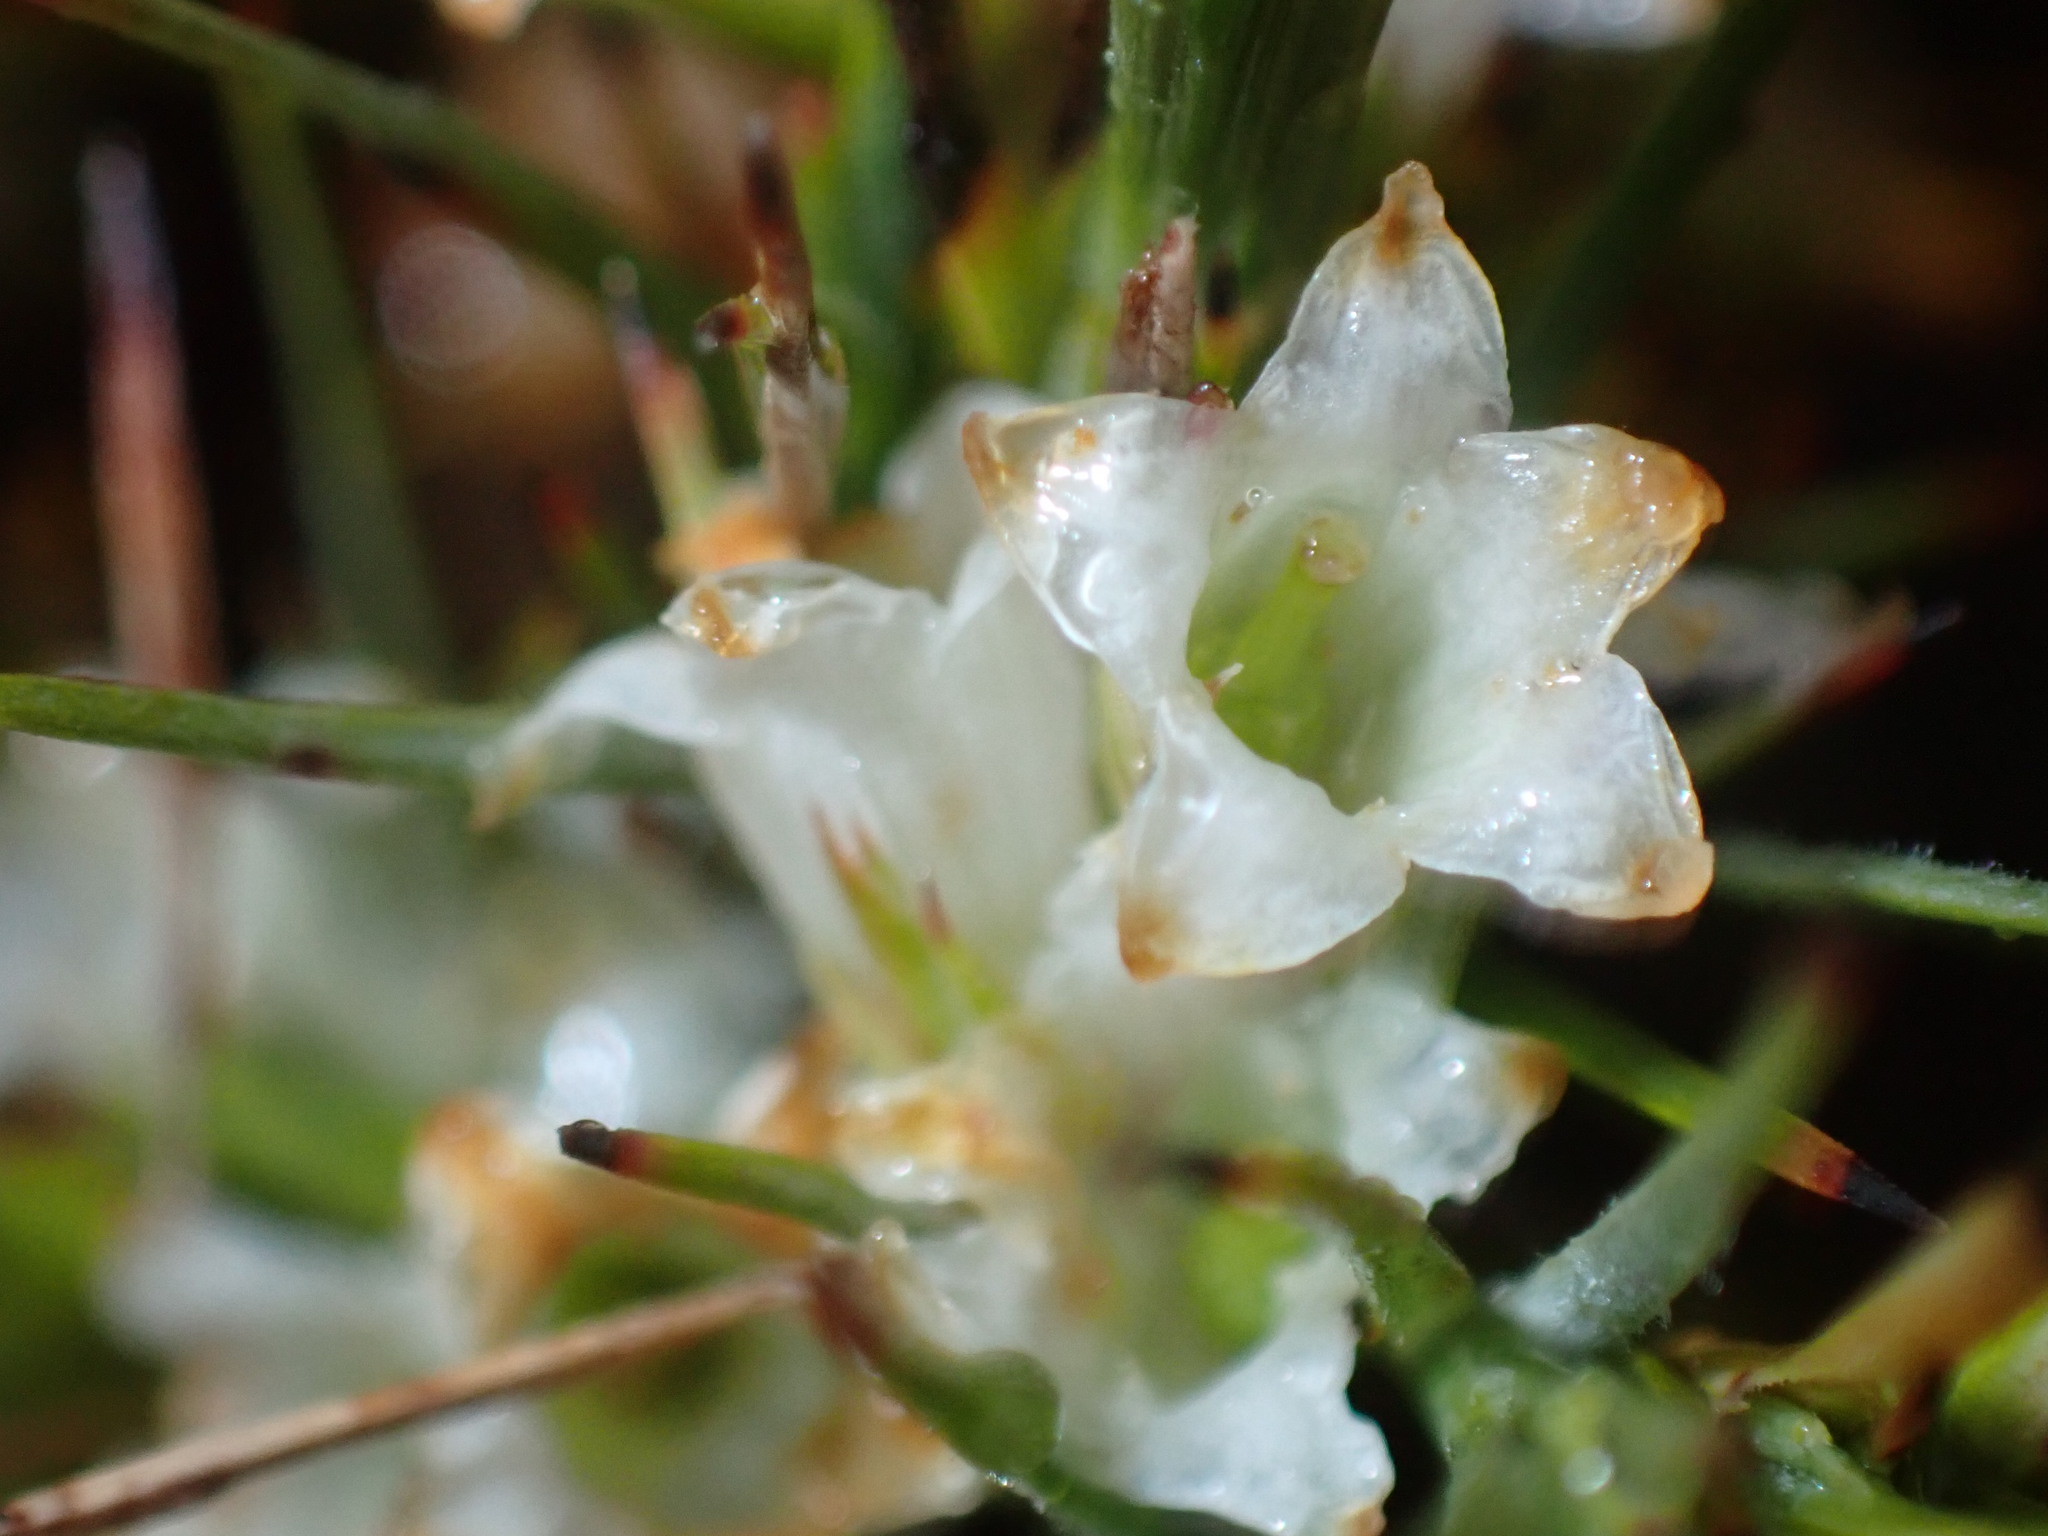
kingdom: Plantae
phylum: Tracheophyta
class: Magnoliopsida
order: Ericales
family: Ericaceae
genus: Dracophyllum
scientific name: Dracophyllum longifolium
